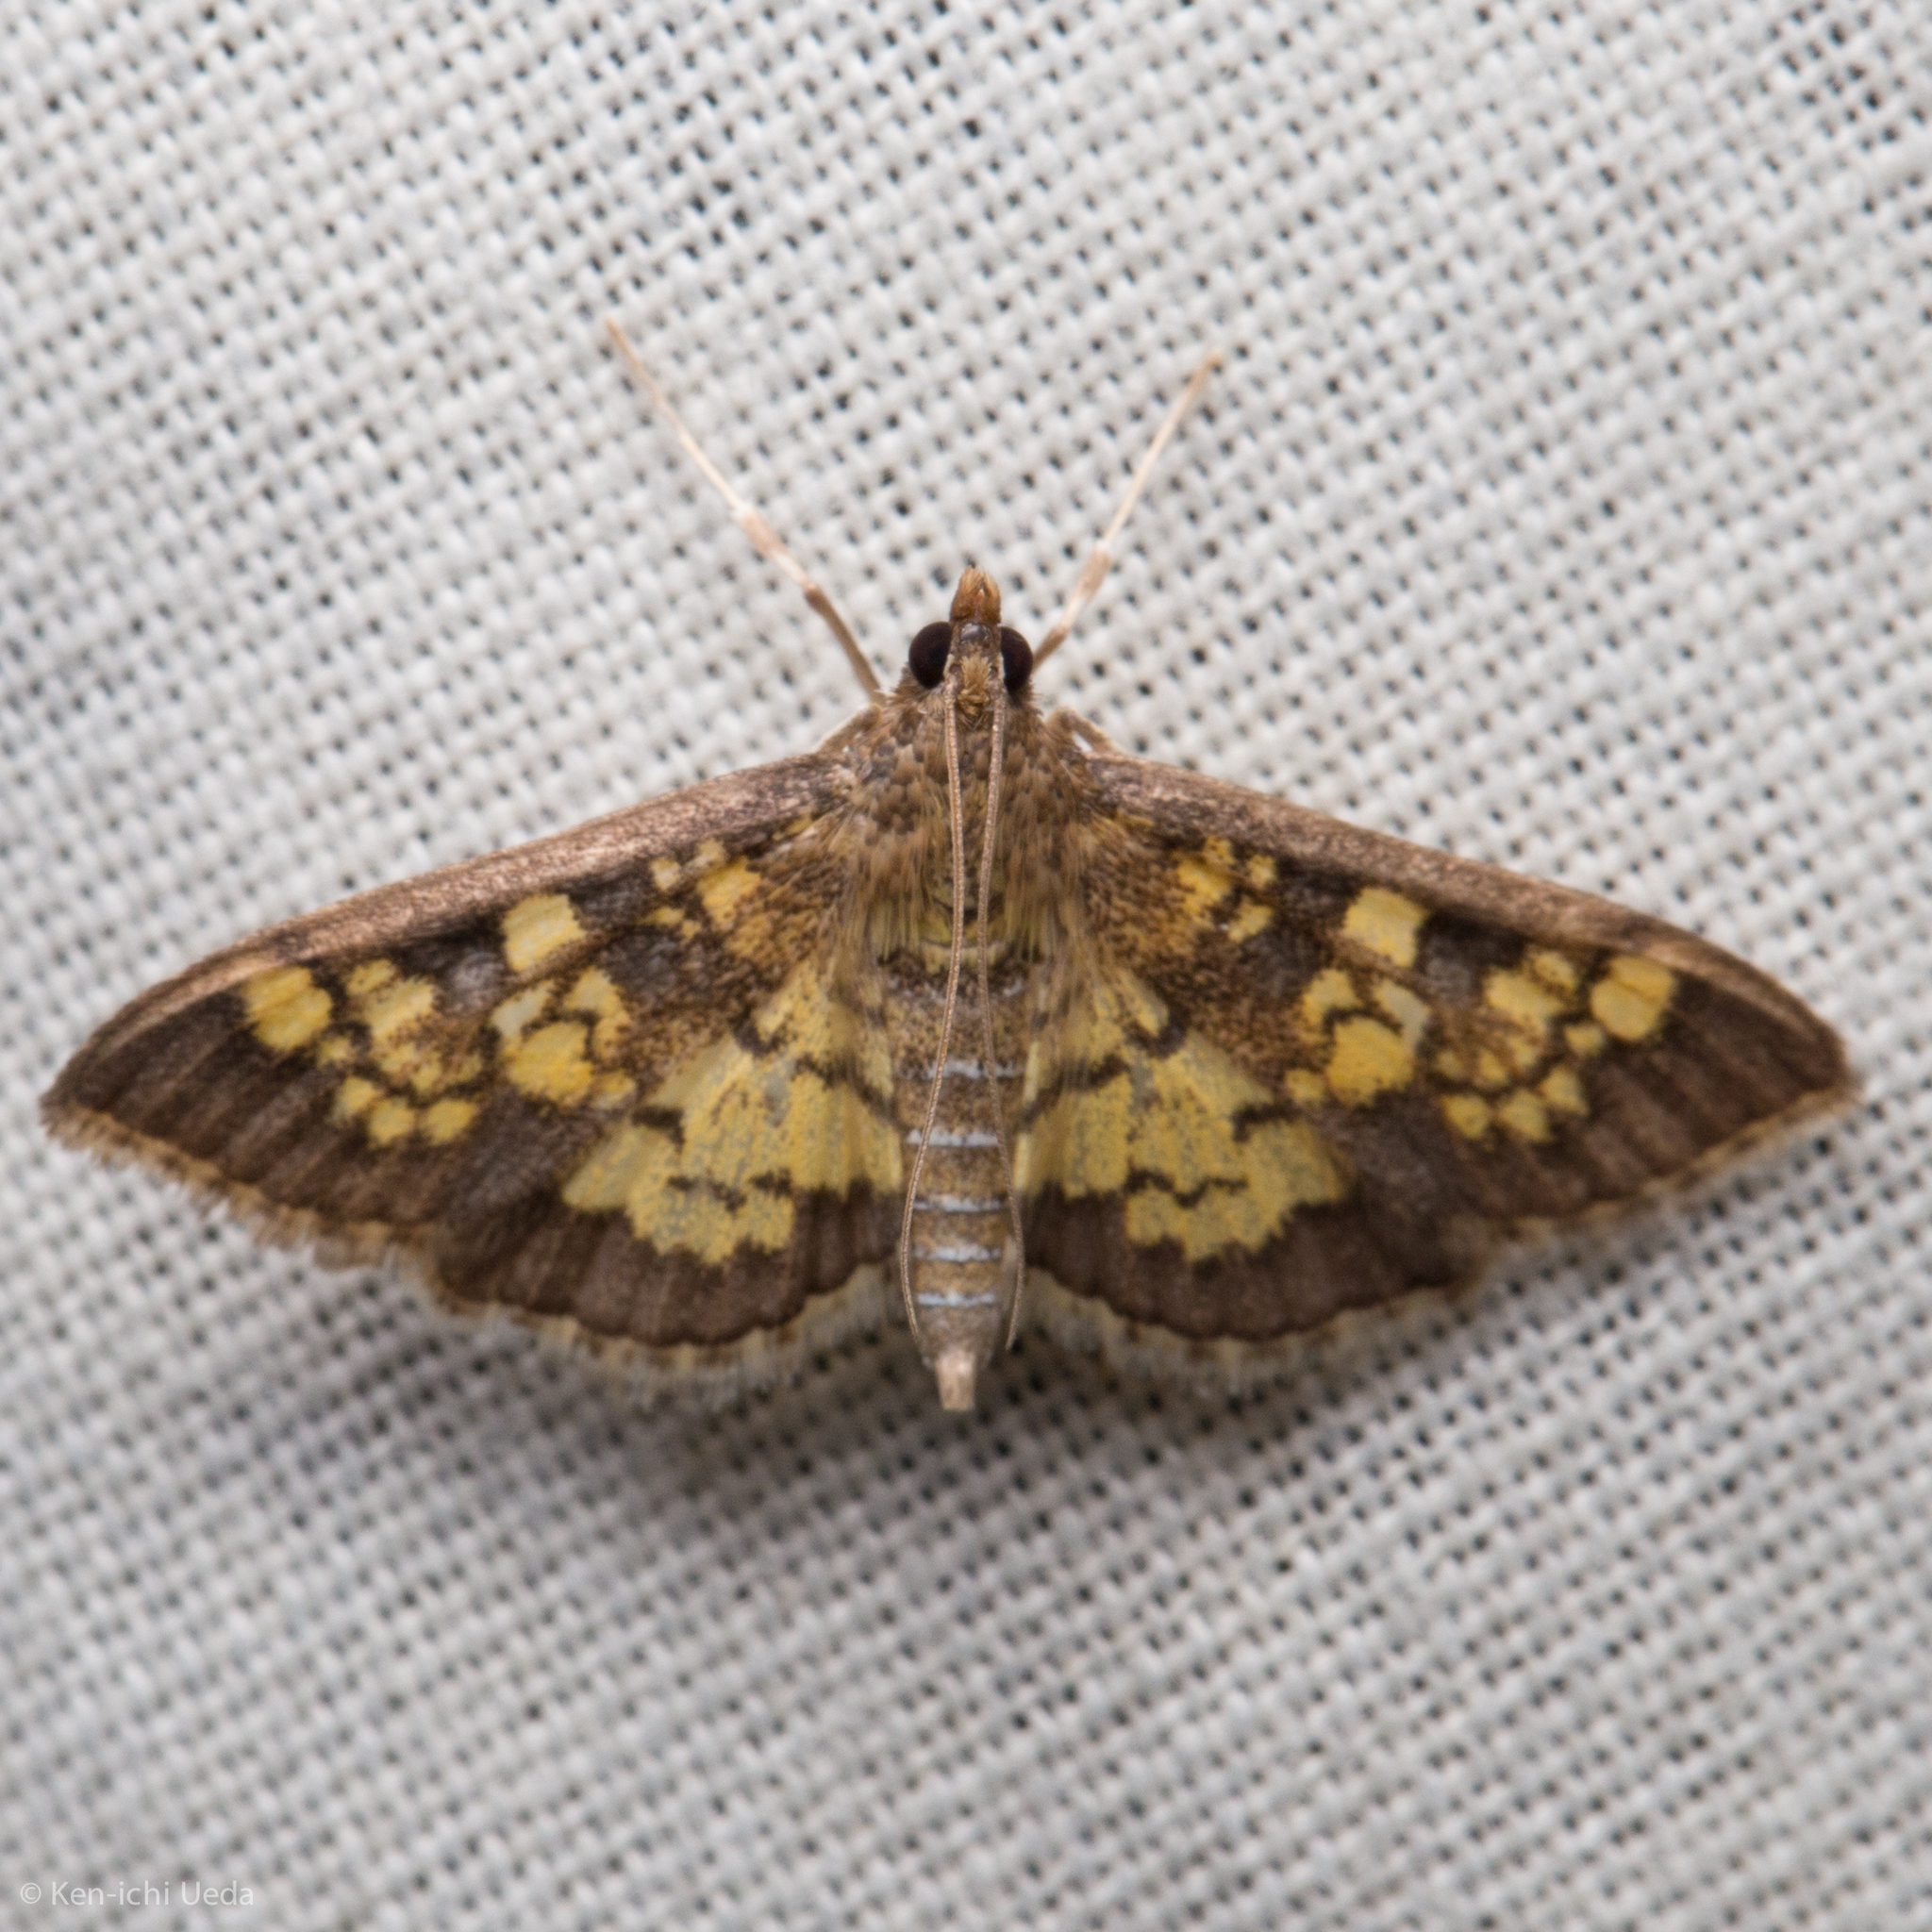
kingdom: Animalia
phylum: Arthropoda
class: Insecta
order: Lepidoptera
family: Crambidae
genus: Epipagis
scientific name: Epipagis adipaloides
